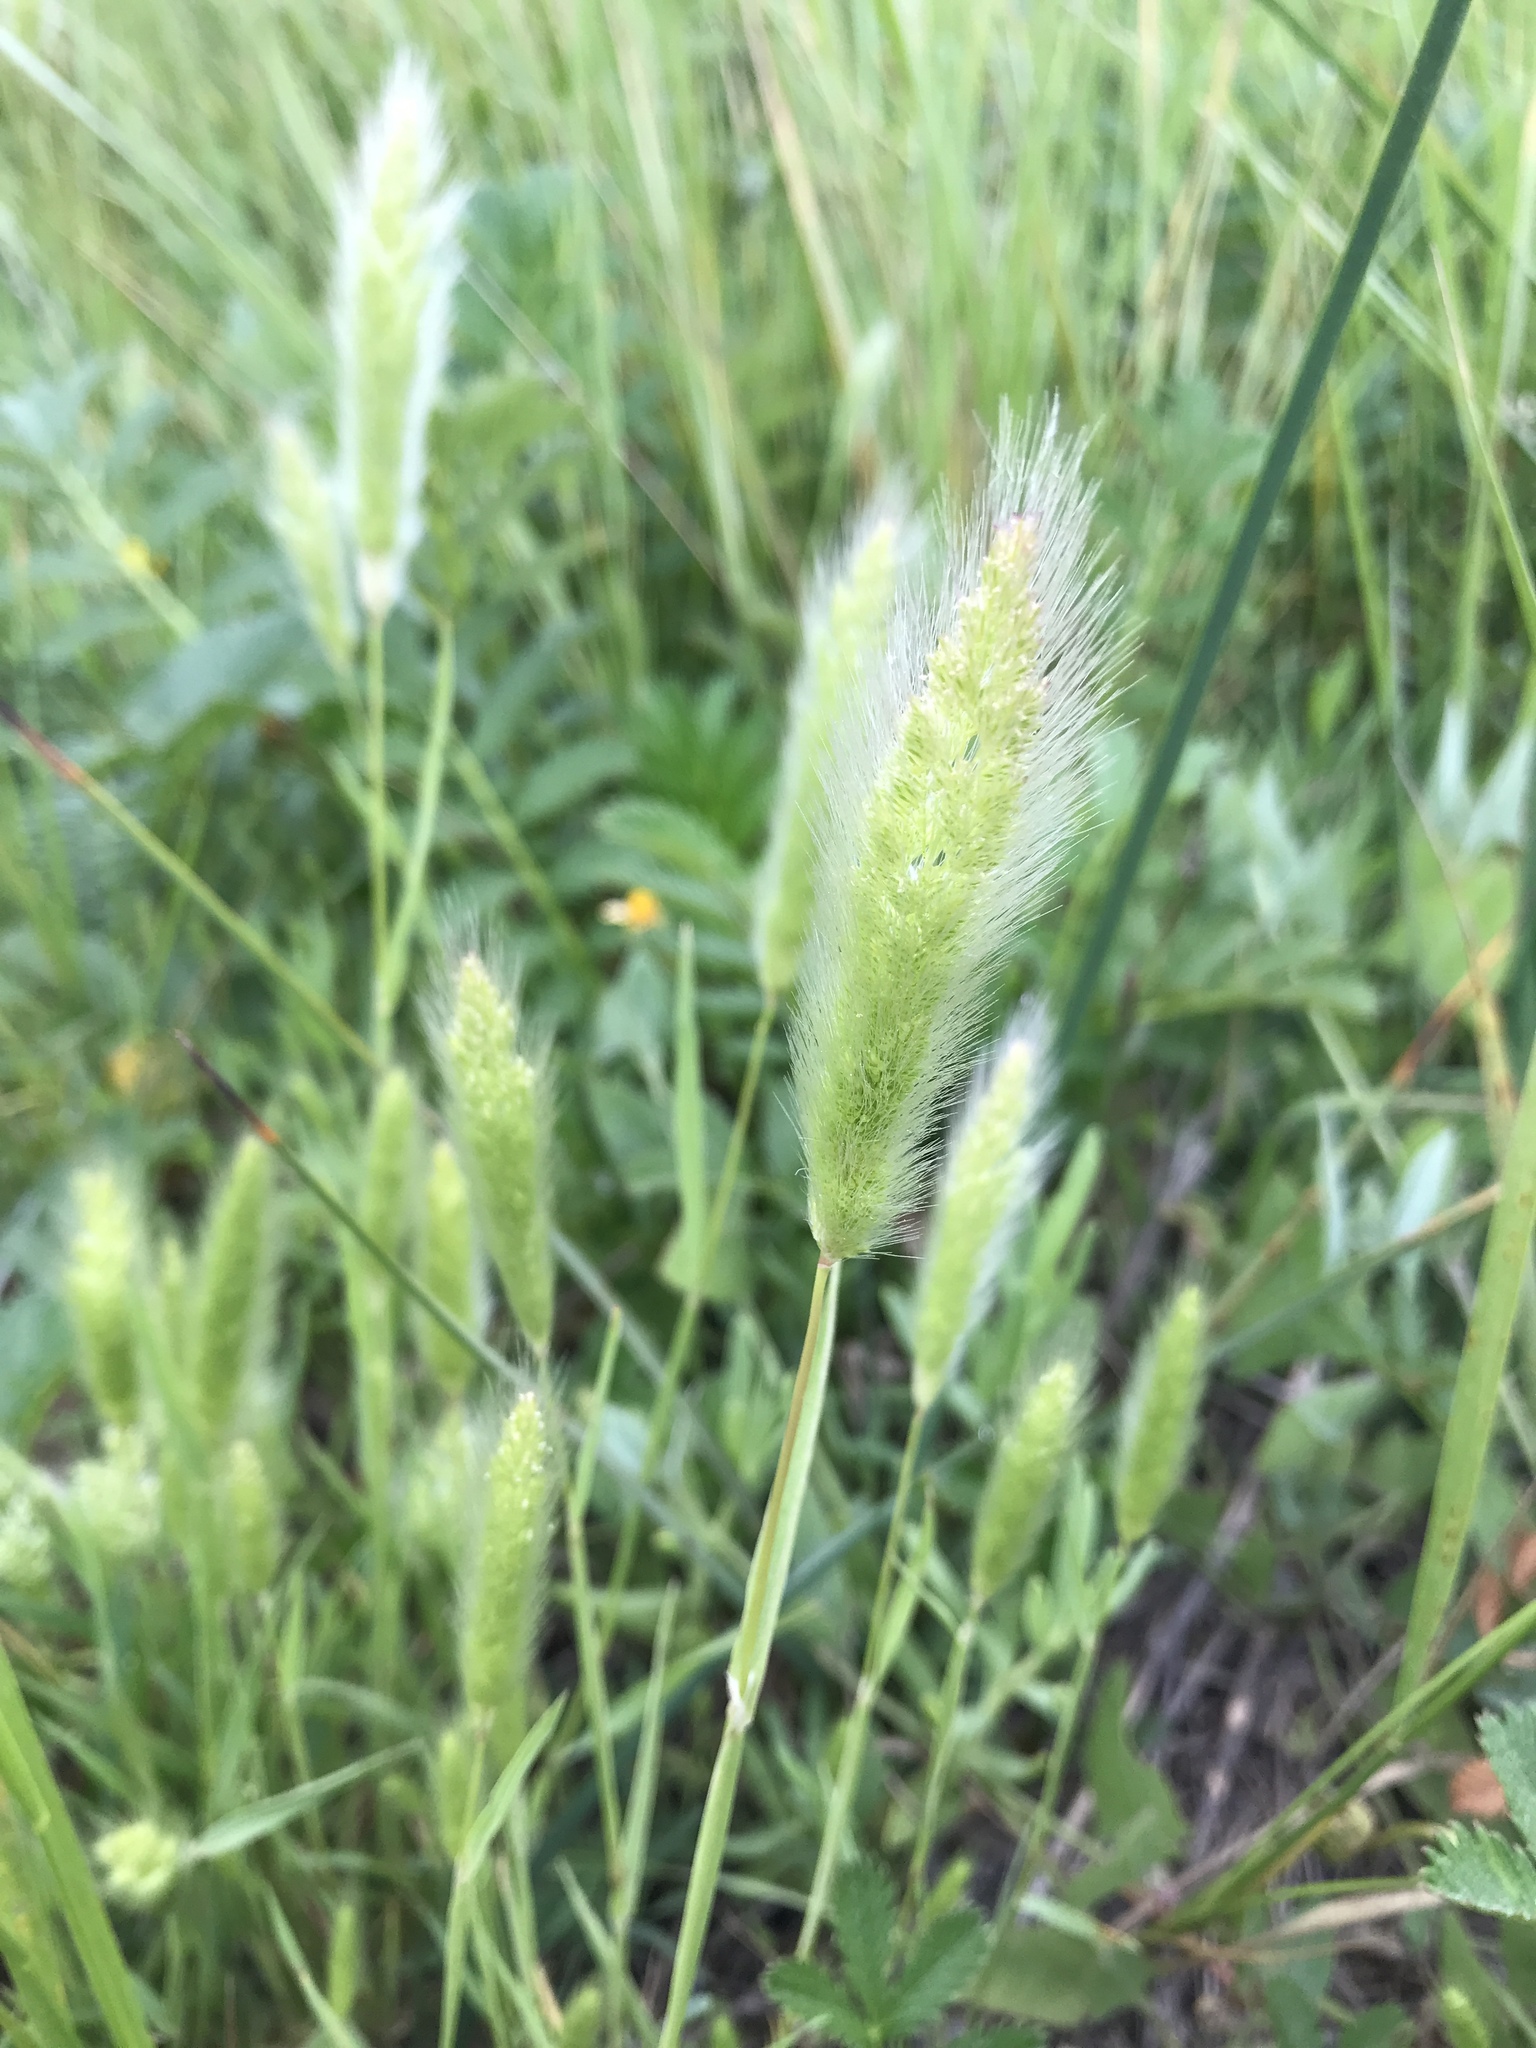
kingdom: Plantae
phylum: Tracheophyta
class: Liliopsida
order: Poales
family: Poaceae
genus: Polypogon
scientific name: Polypogon monspeliensis
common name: Annual rabbitsfoot grass
